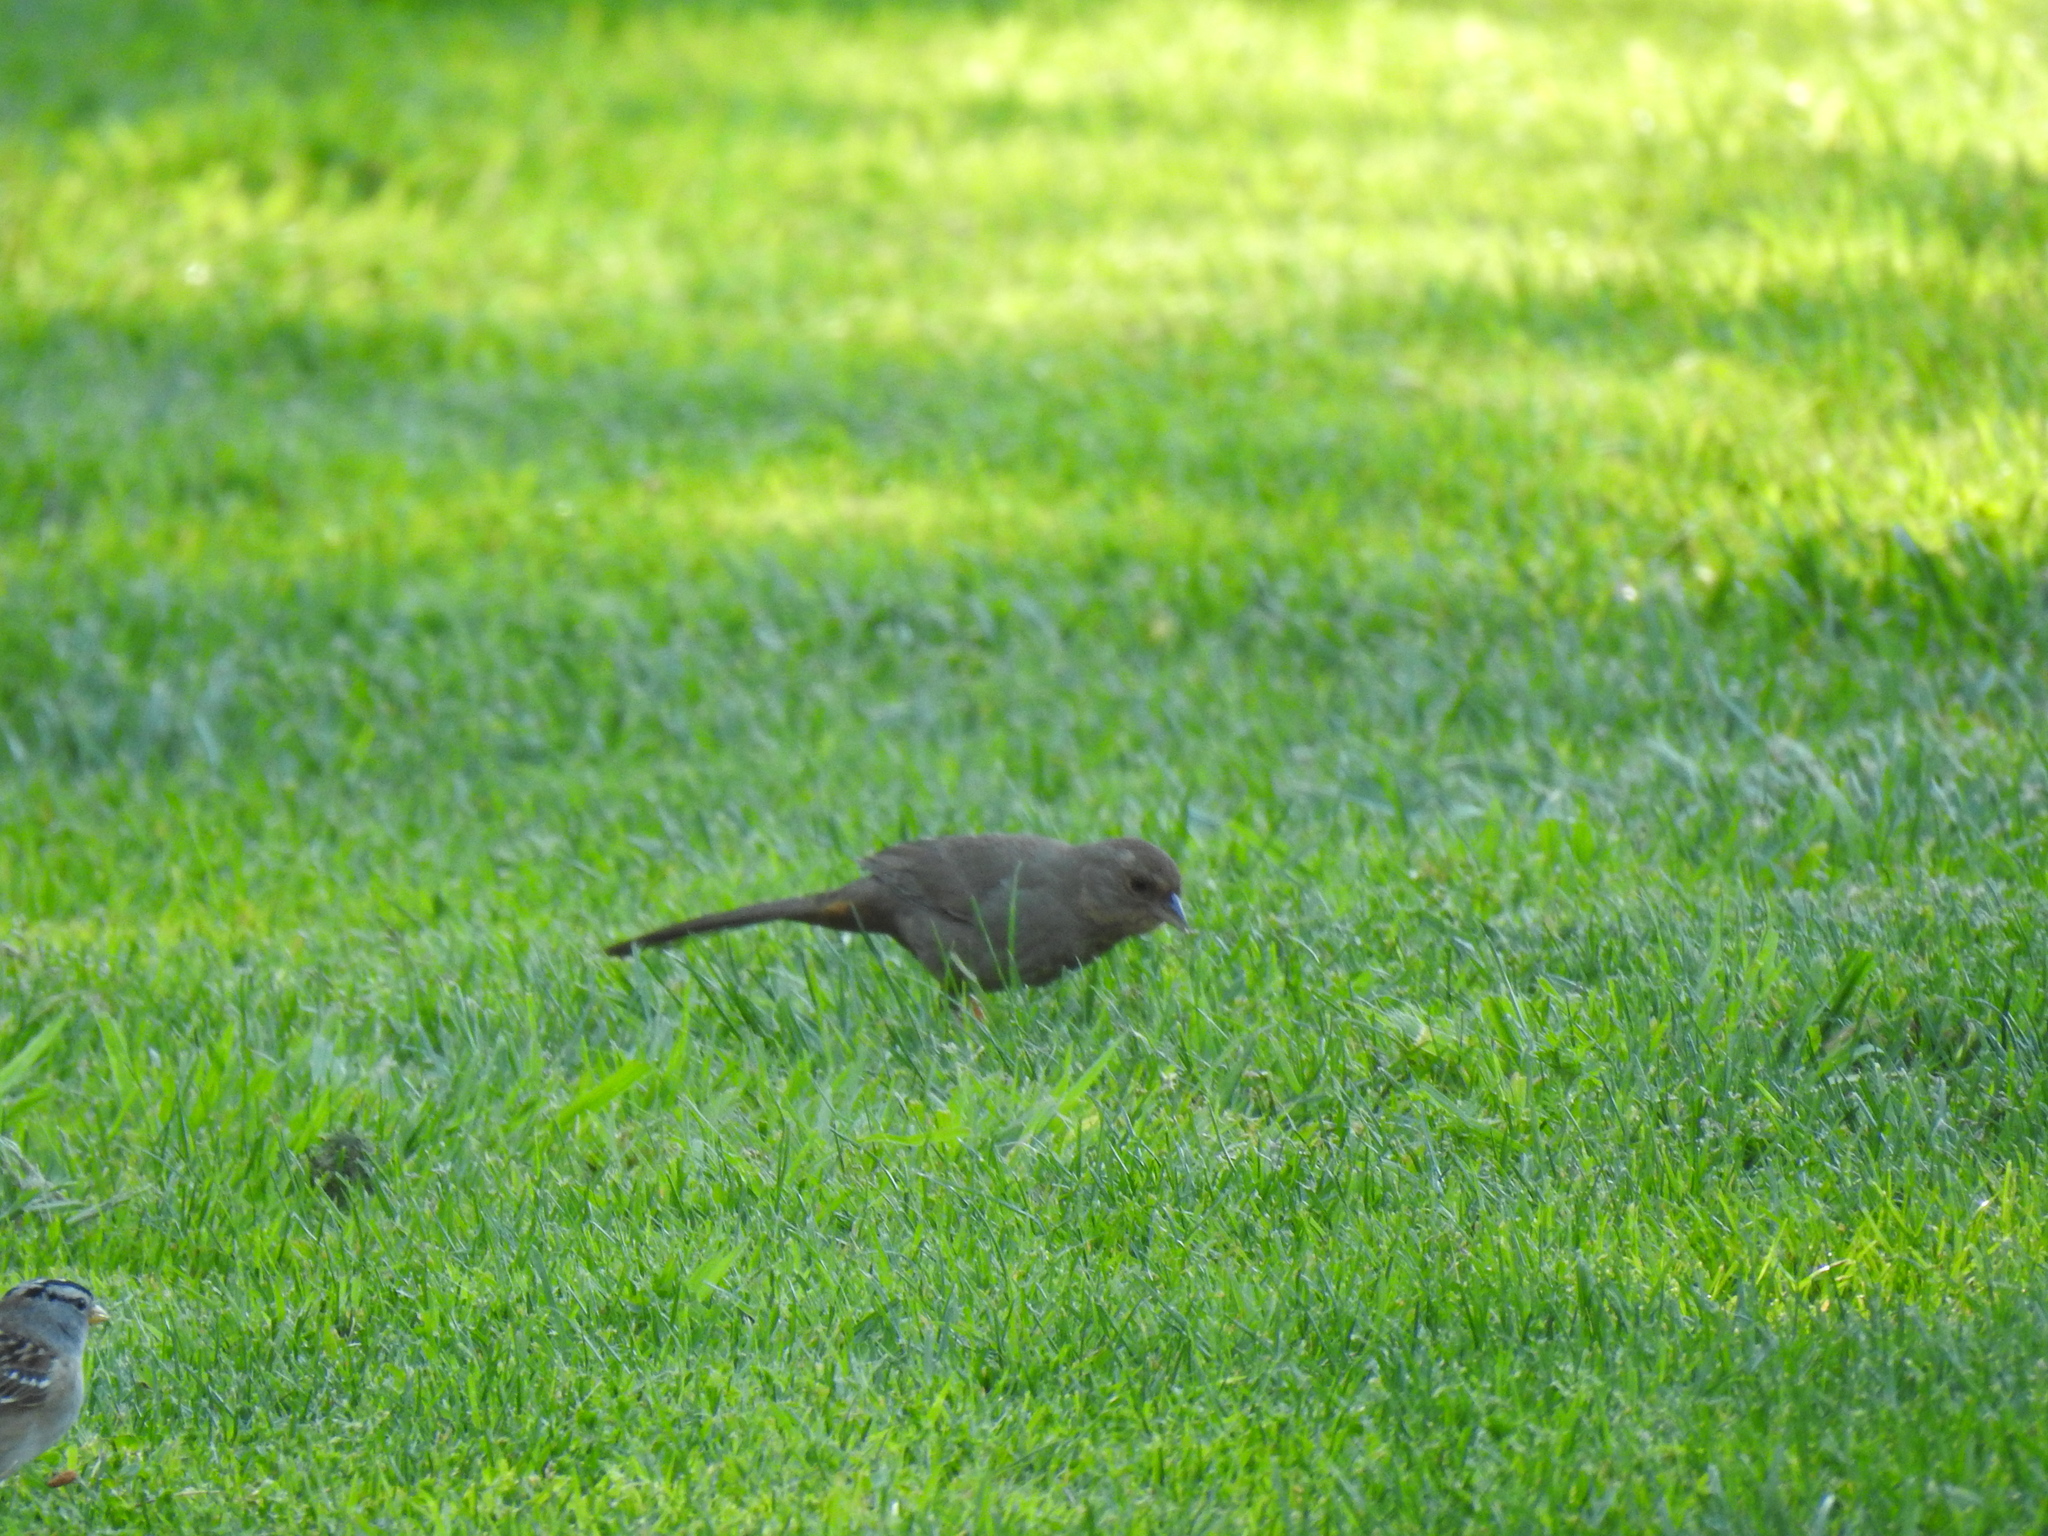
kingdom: Animalia
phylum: Chordata
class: Aves
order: Passeriformes
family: Passerellidae
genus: Melozone
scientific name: Melozone crissalis
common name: California towhee
